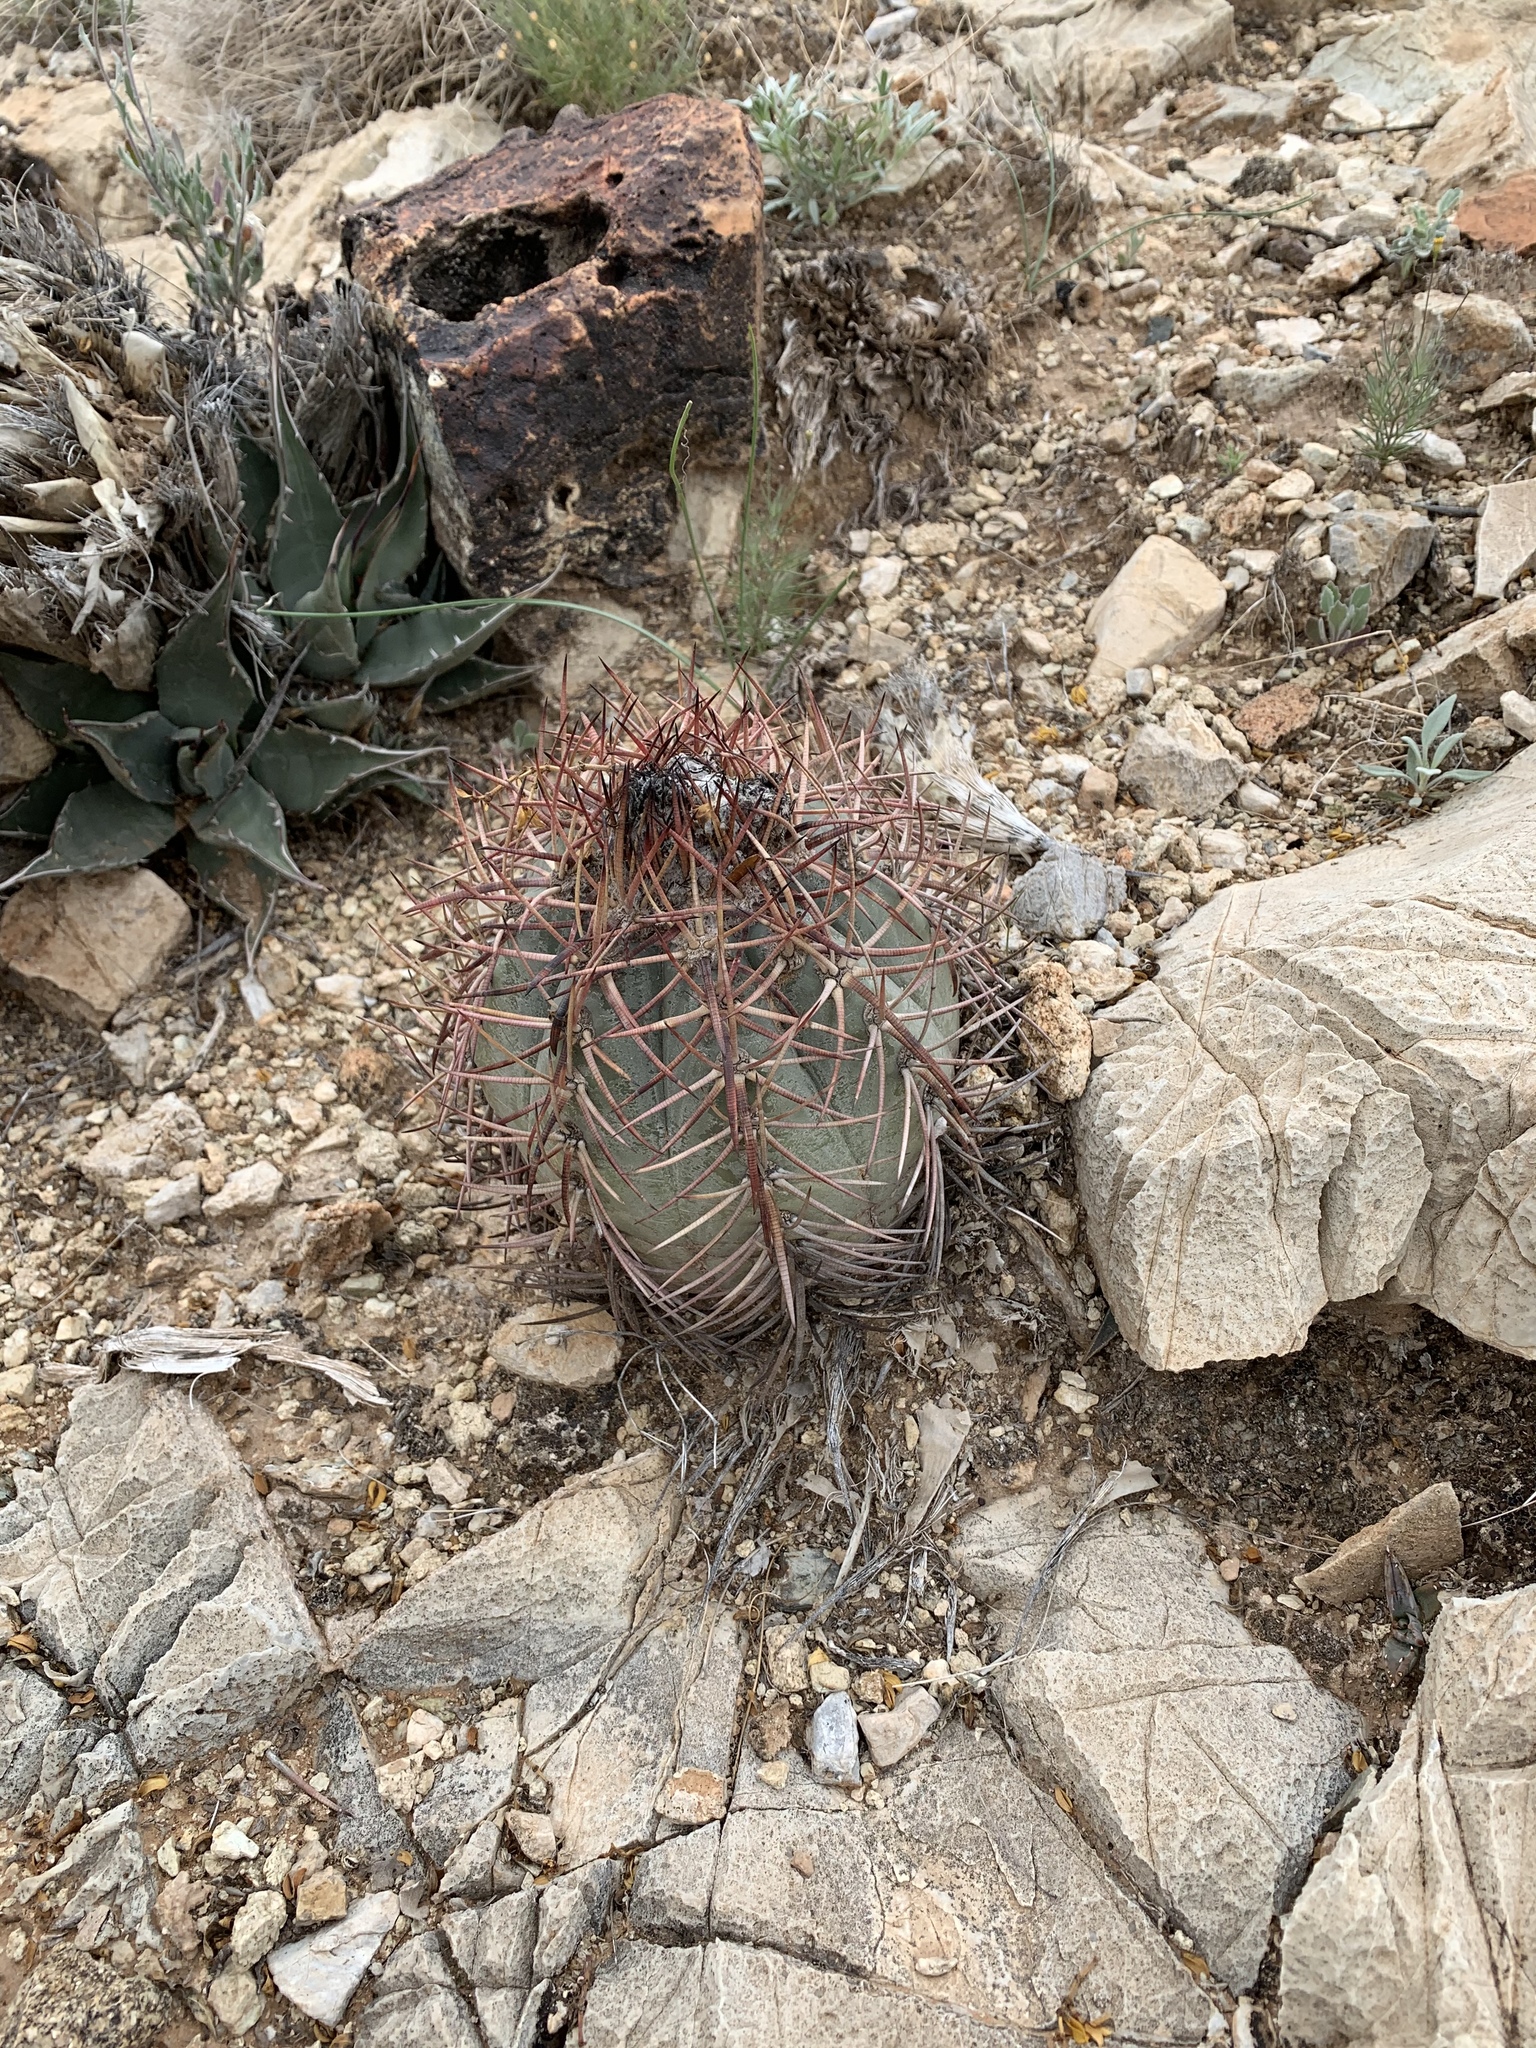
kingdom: Plantae
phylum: Tracheophyta
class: Magnoliopsida
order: Caryophyllales
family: Cactaceae
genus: Echinocactus
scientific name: Echinocactus horizonthalonius
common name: Devilshead
